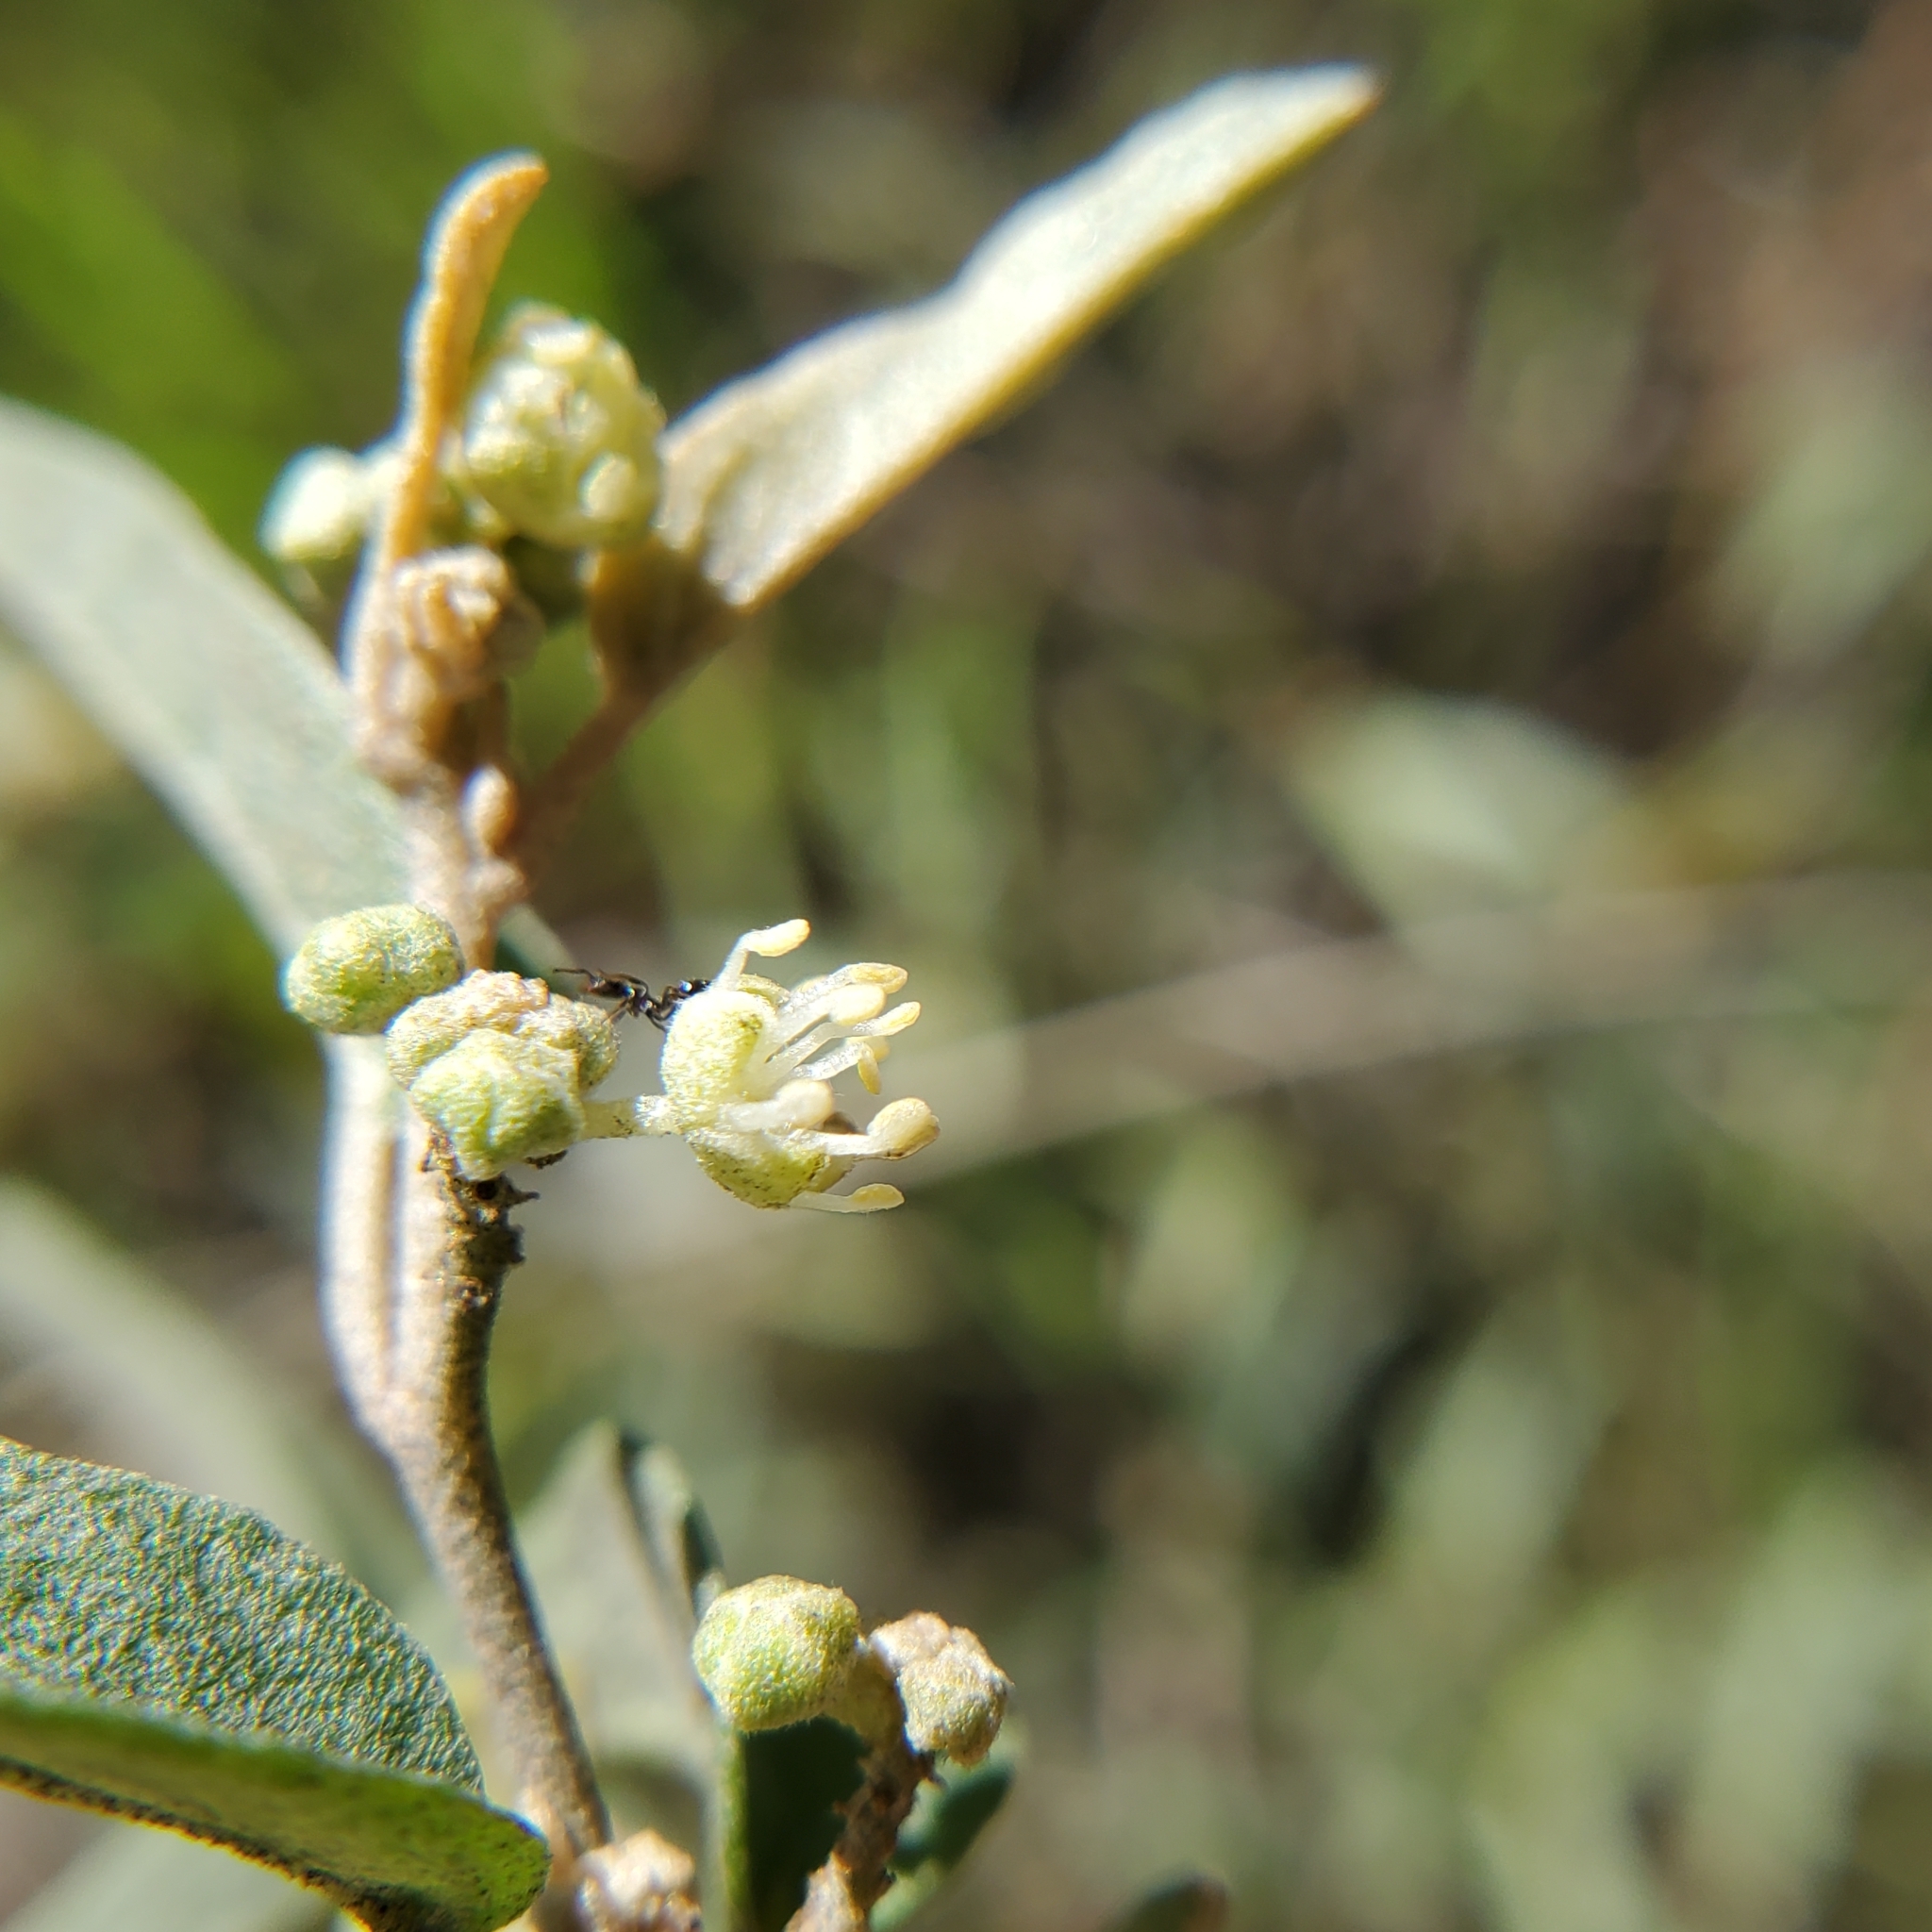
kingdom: Plantae
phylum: Tracheophyta
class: Magnoliopsida
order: Malpighiales
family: Euphorbiaceae
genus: Croton
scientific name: Croton californicus
